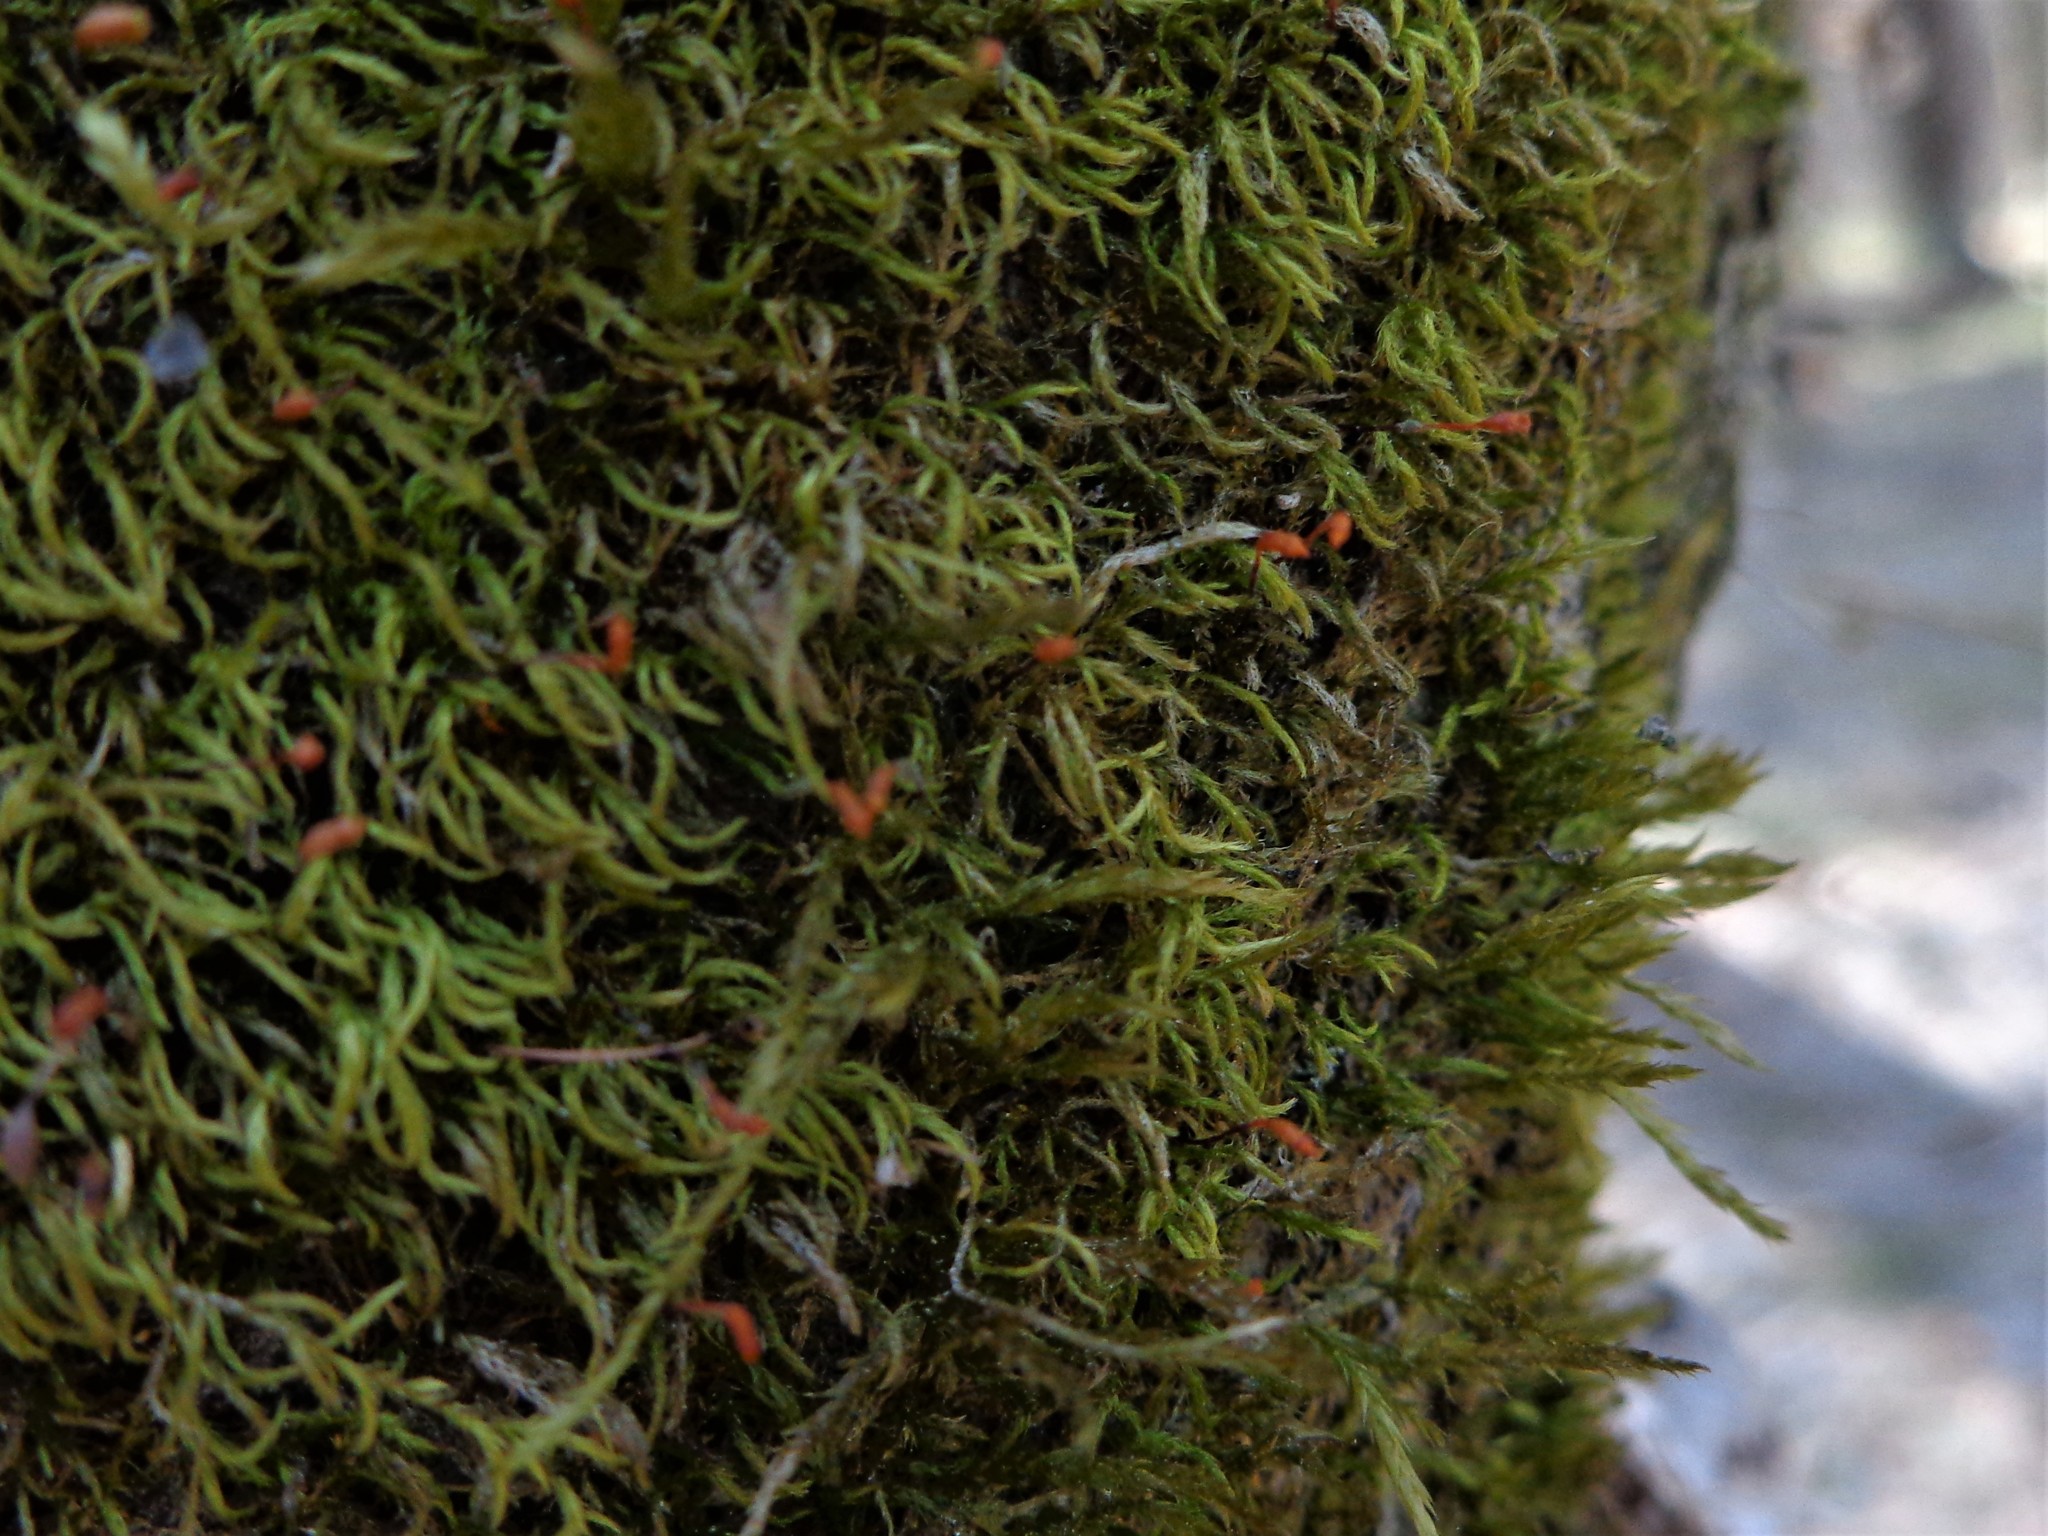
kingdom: Plantae
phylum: Bryophyta
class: Bryopsida
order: Hypnales
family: Callicladiaceae
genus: Callicladium
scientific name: Callicladium haldanianum
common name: Beautiful branch moss
